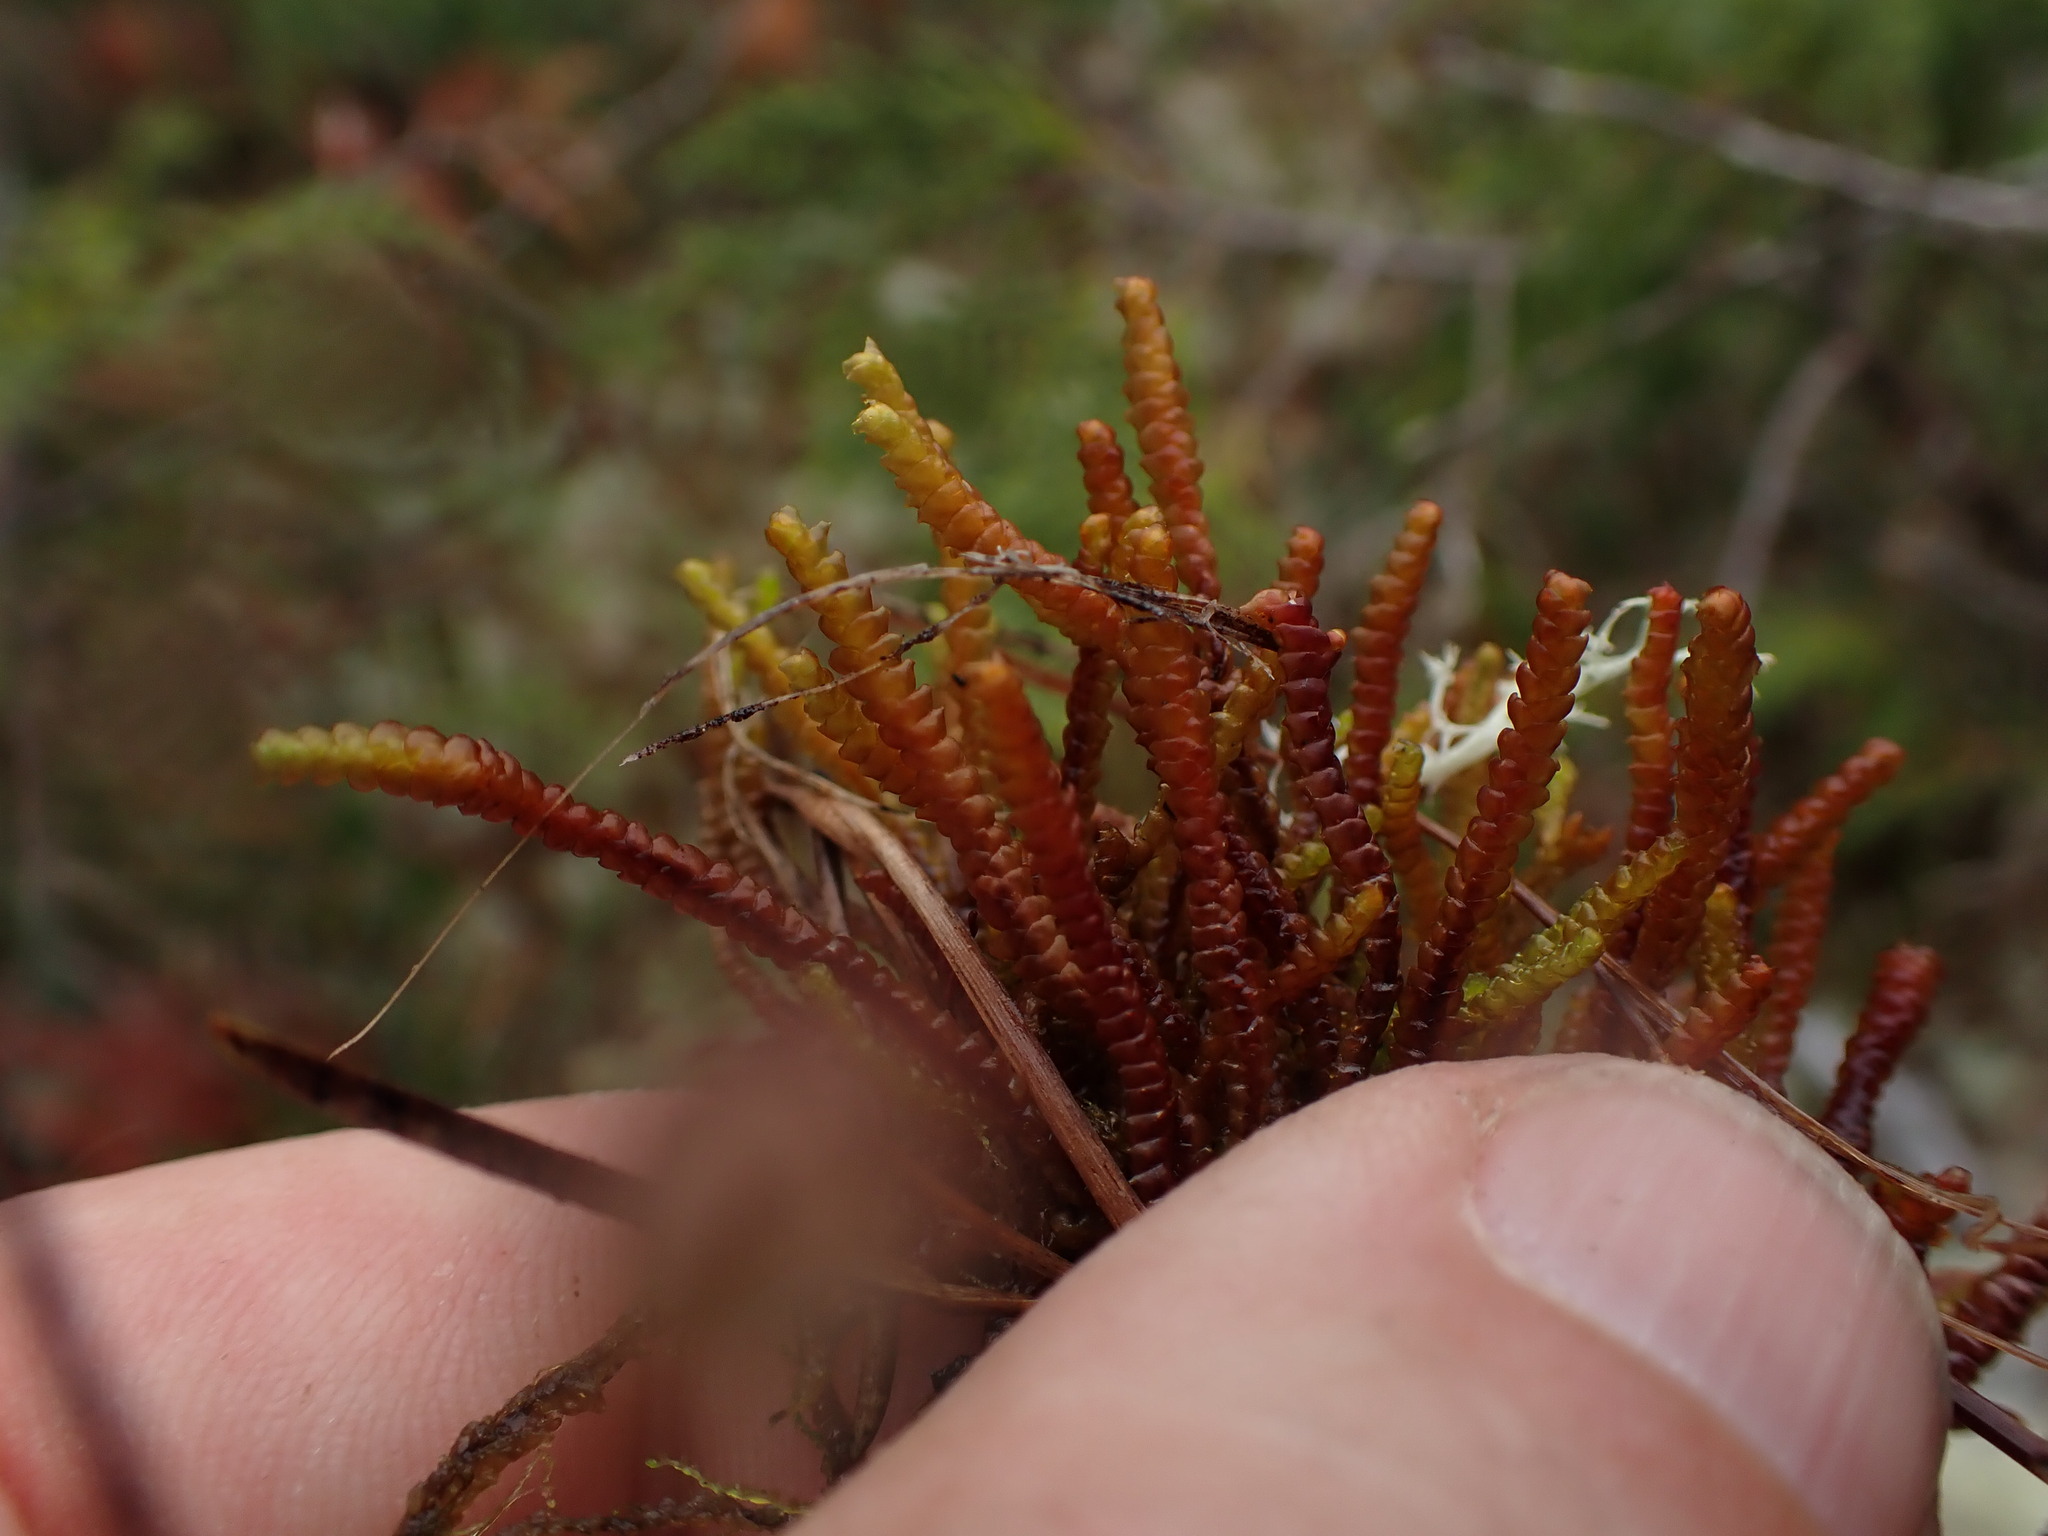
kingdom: Plantae
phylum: Marchantiophyta
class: Jungermanniopsida
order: Pleuroziales
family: Pleuroziaceae
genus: Pleurozia
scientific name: Pleurozia purpurea
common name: Purple spoonwort
